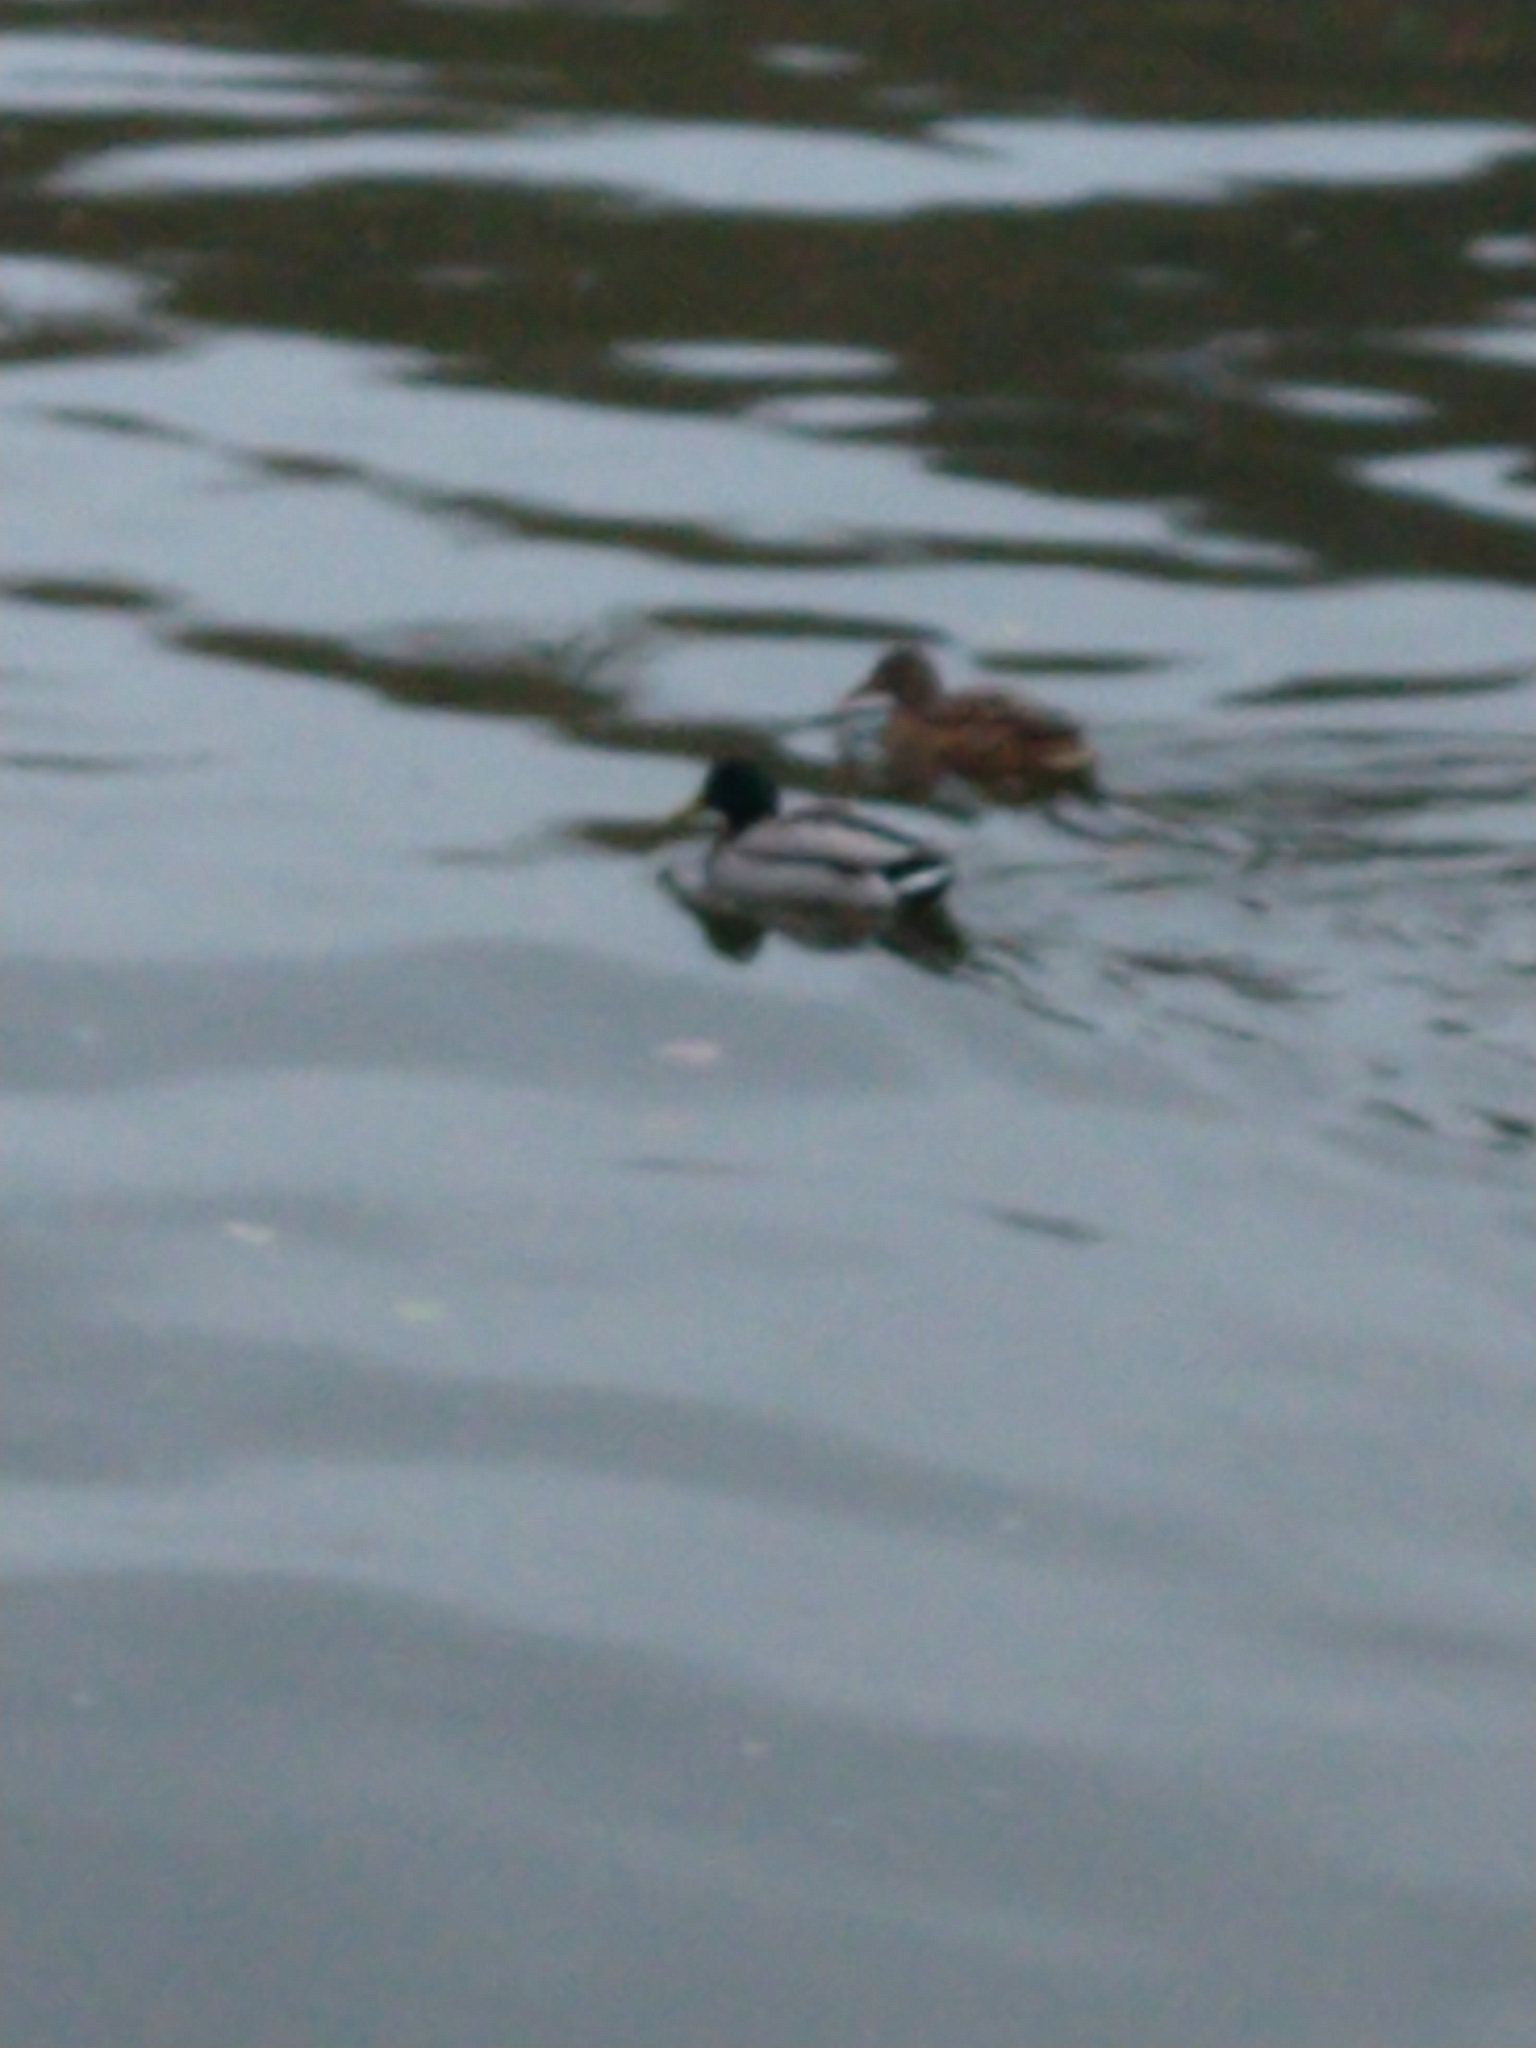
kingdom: Animalia
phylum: Chordata
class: Aves
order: Anseriformes
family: Anatidae
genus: Anas
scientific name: Anas platyrhynchos
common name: Mallard
